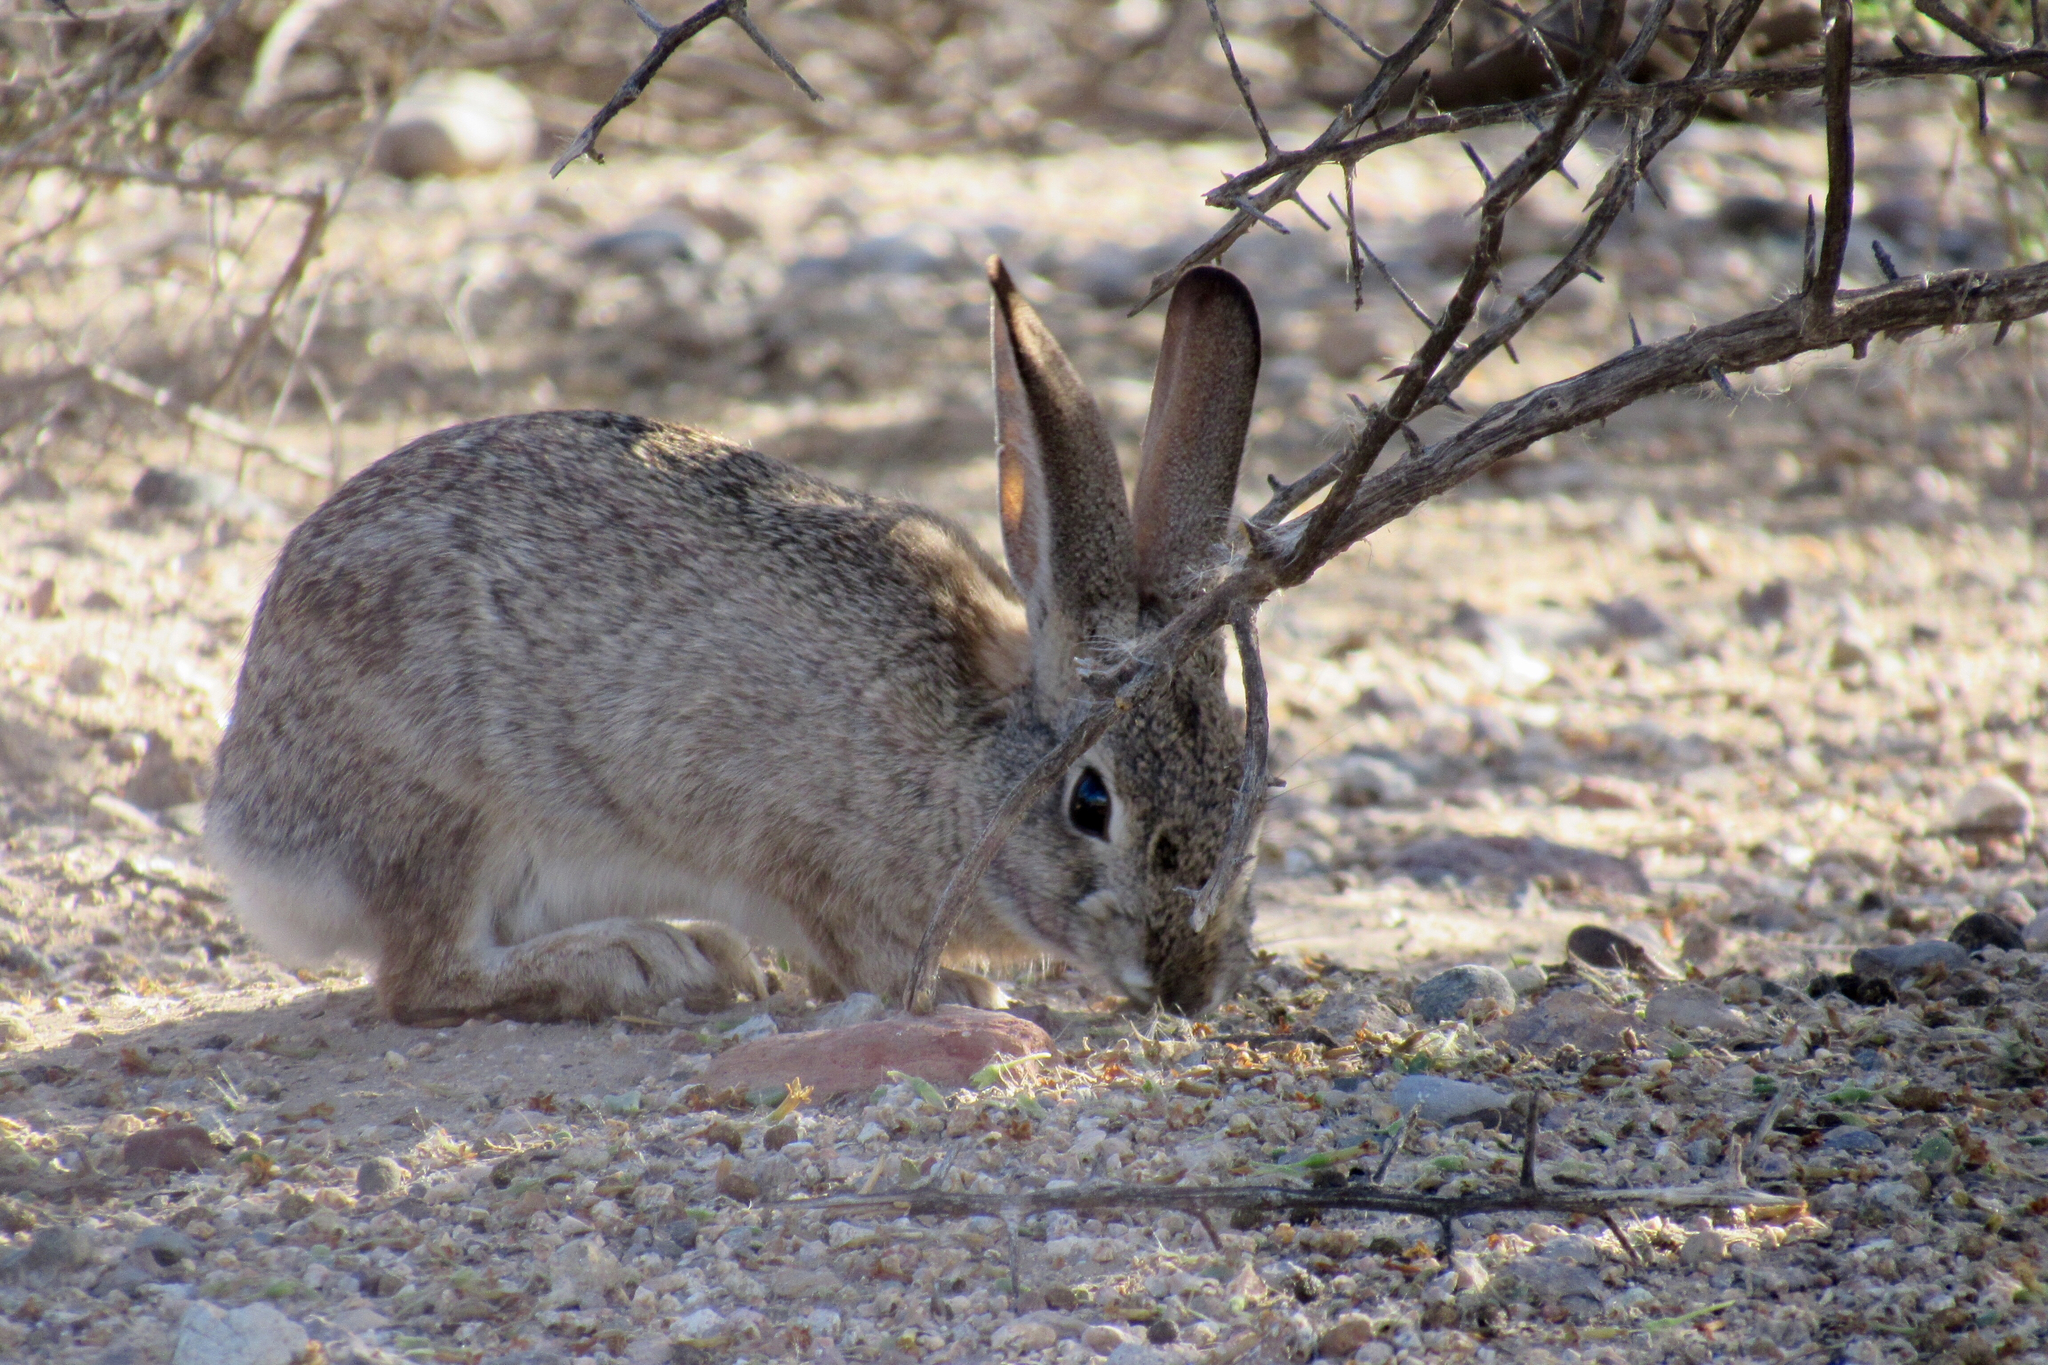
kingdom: Animalia
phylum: Chordata
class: Mammalia
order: Lagomorpha
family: Leporidae
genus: Sylvilagus
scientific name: Sylvilagus audubonii
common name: Desert cottontail
